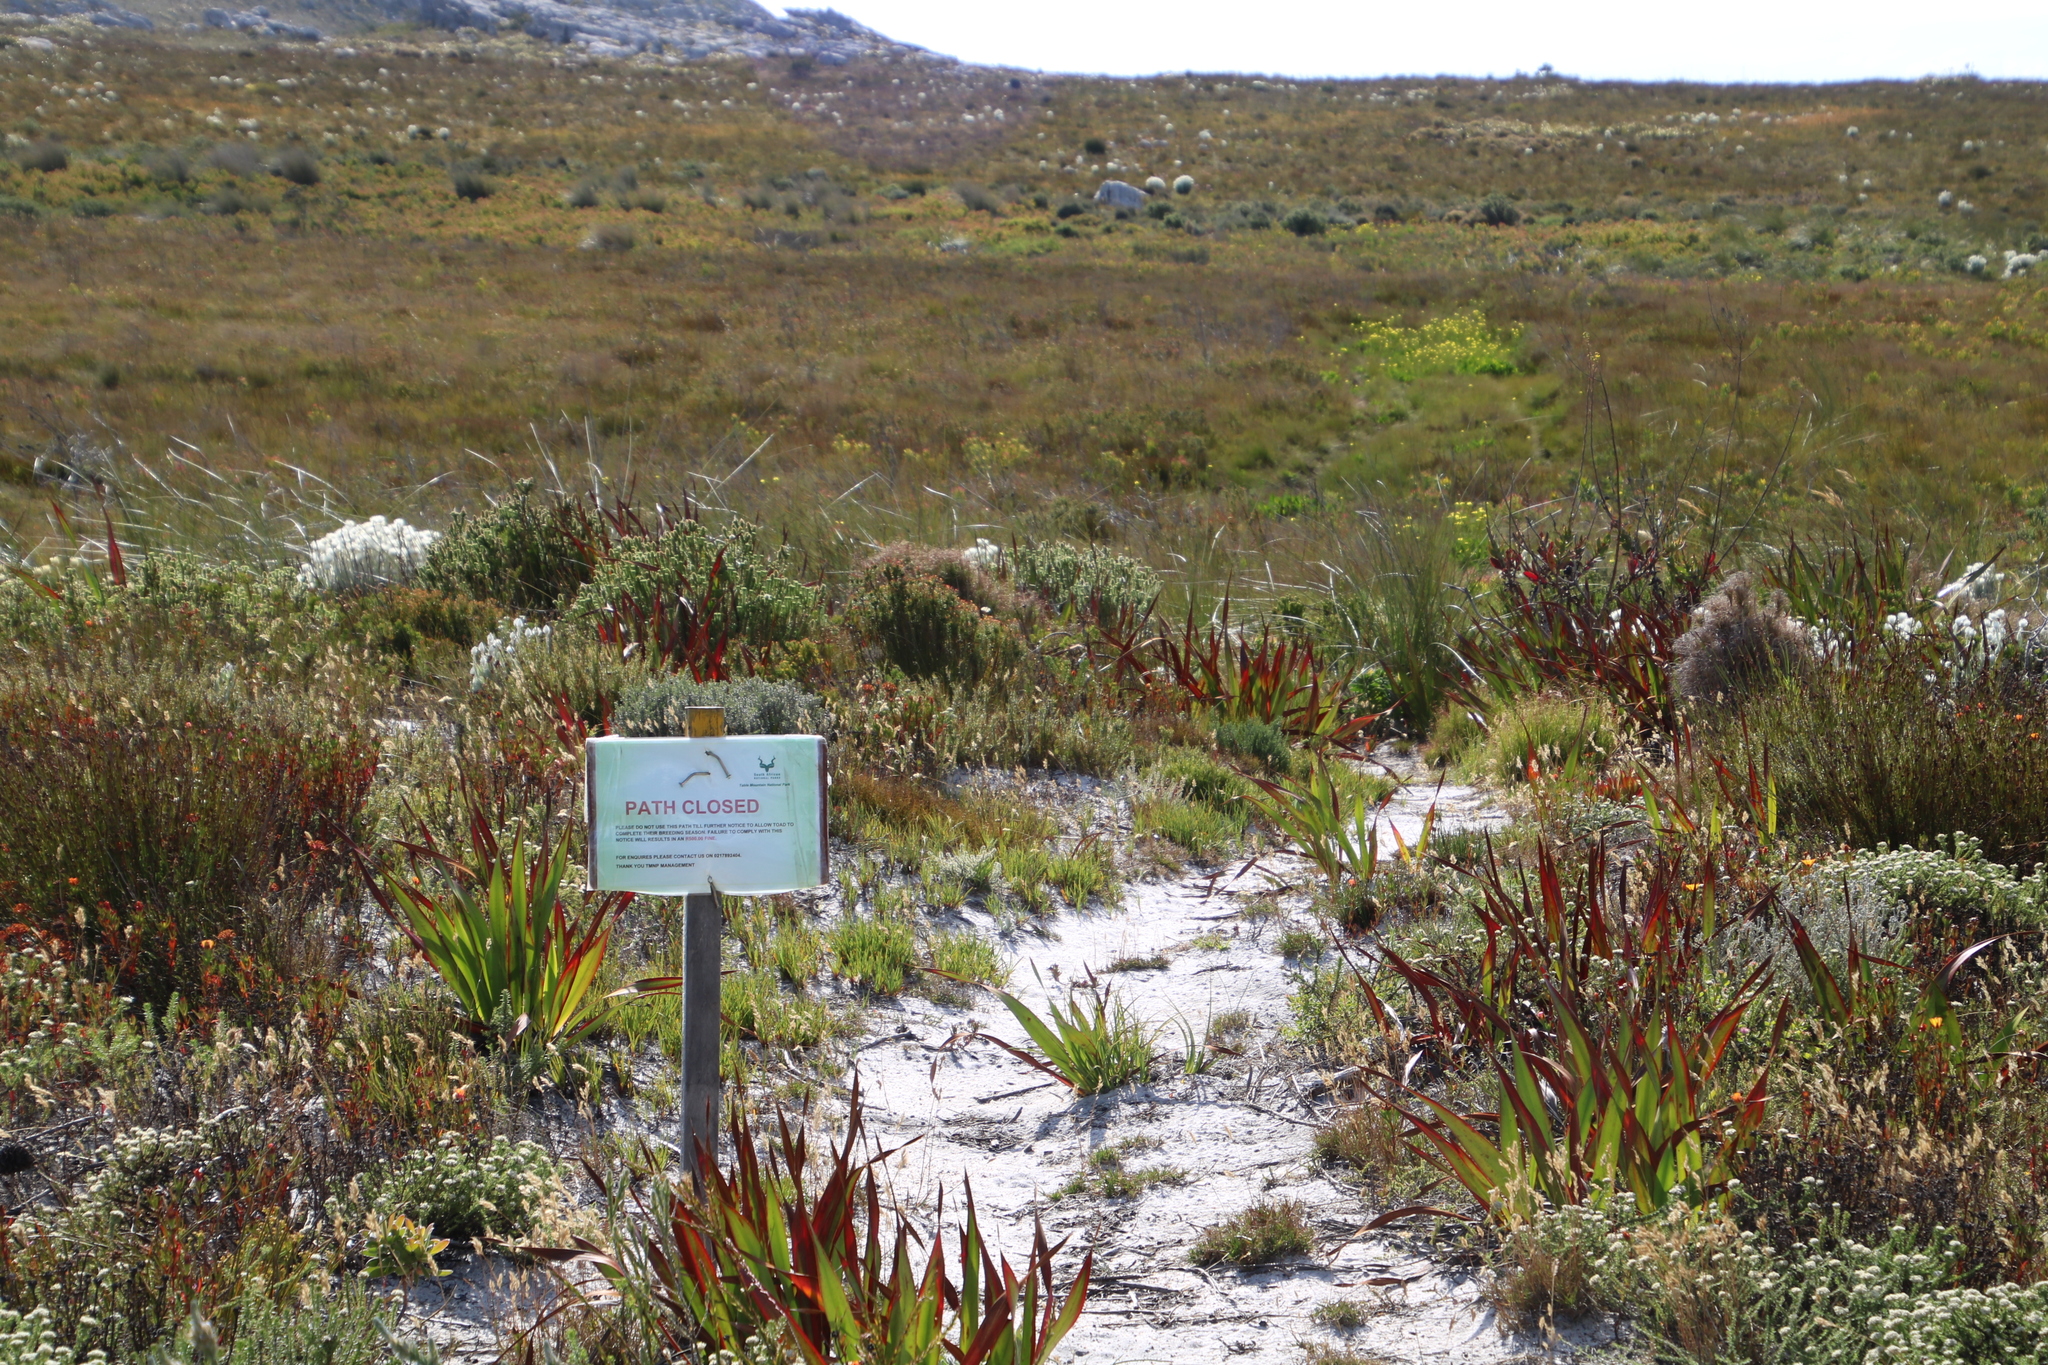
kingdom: Plantae
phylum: Tracheophyta
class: Magnoliopsida
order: Asterales
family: Menyanthaceae
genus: Villarsia
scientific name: Villarsia goldblattiana
